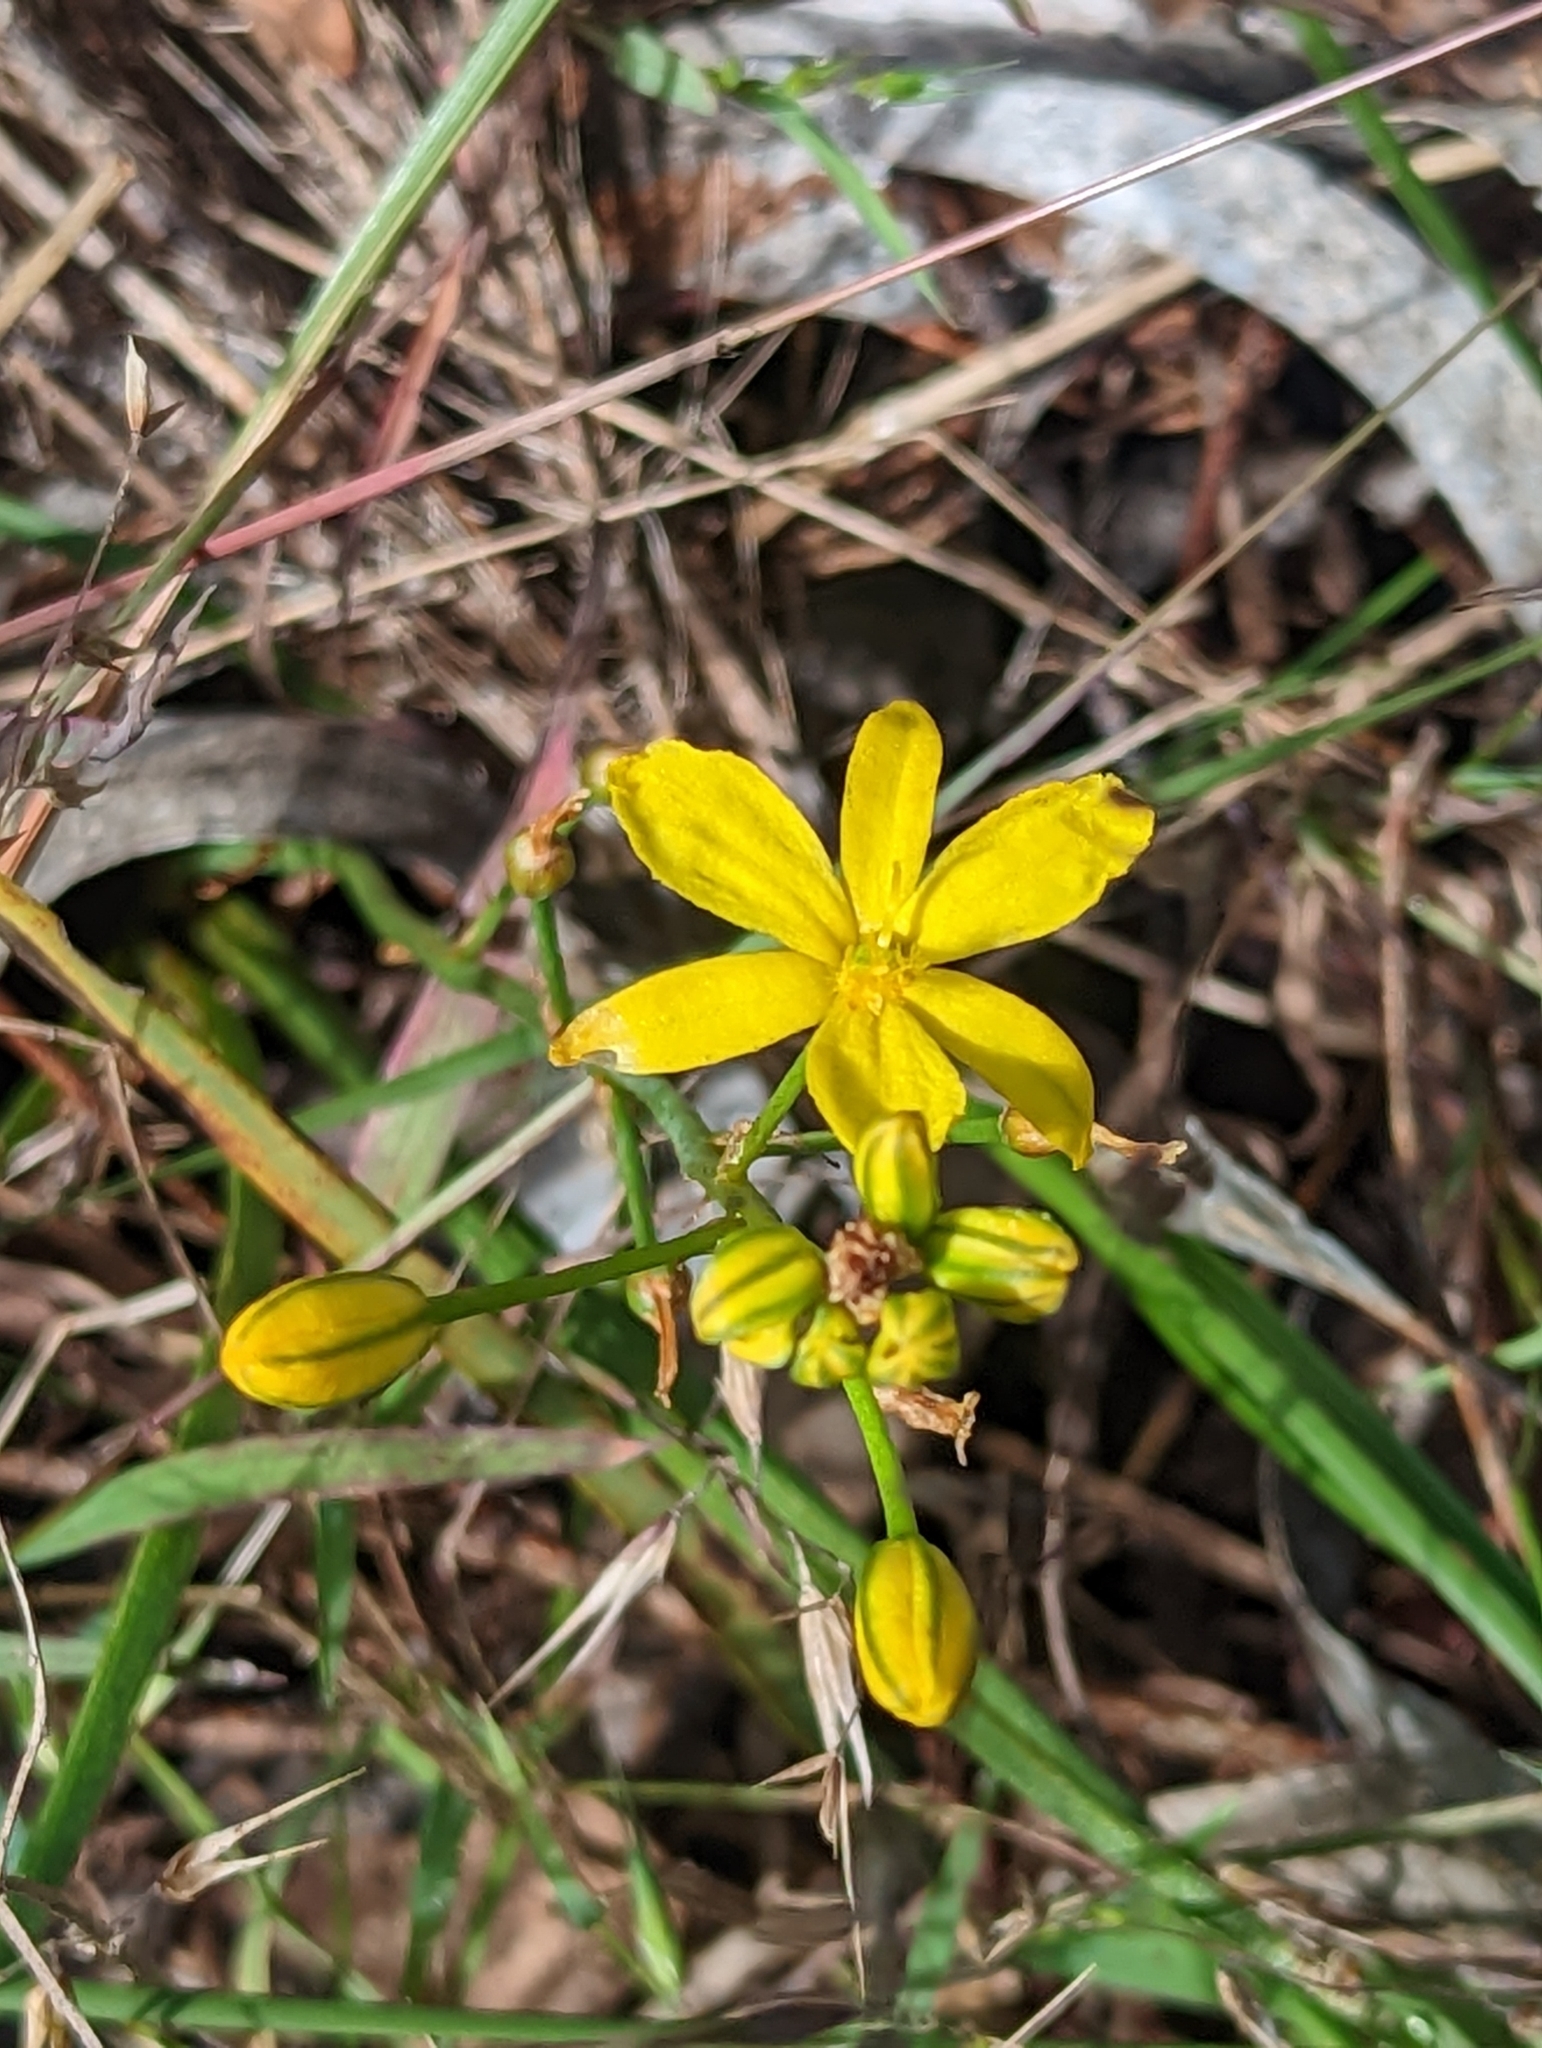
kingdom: Plantae
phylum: Tracheophyta
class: Liliopsida
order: Asparagales
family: Asphodelaceae
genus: Bulbine
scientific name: Bulbine bulbosa
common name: Golden-lily
